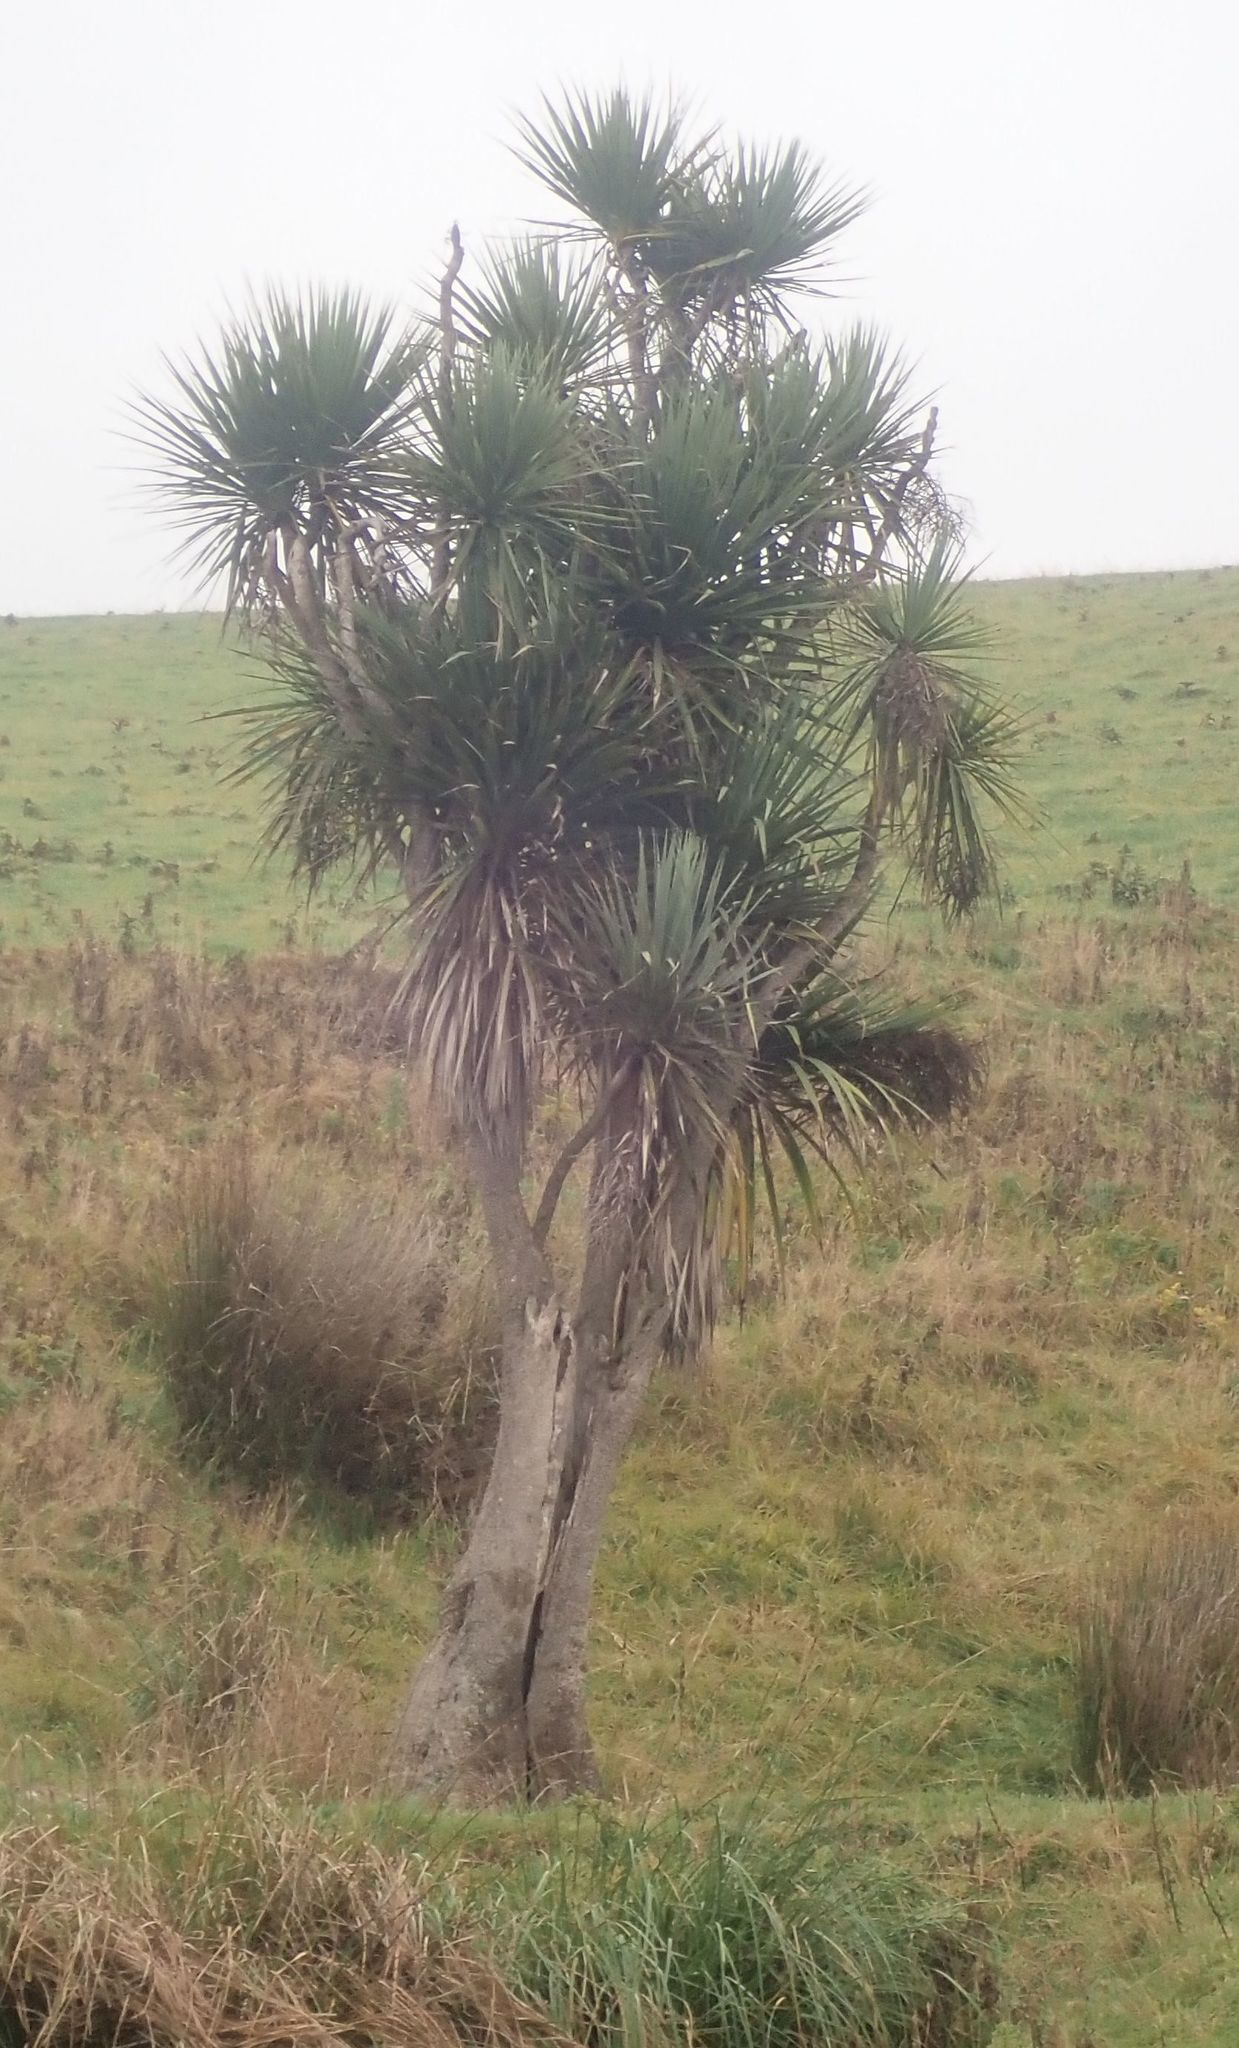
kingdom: Plantae
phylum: Tracheophyta
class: Liliopsida
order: Asparagales
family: Asparagaceae
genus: Cordyline
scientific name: Cordyline australis
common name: Cabbage-palm
